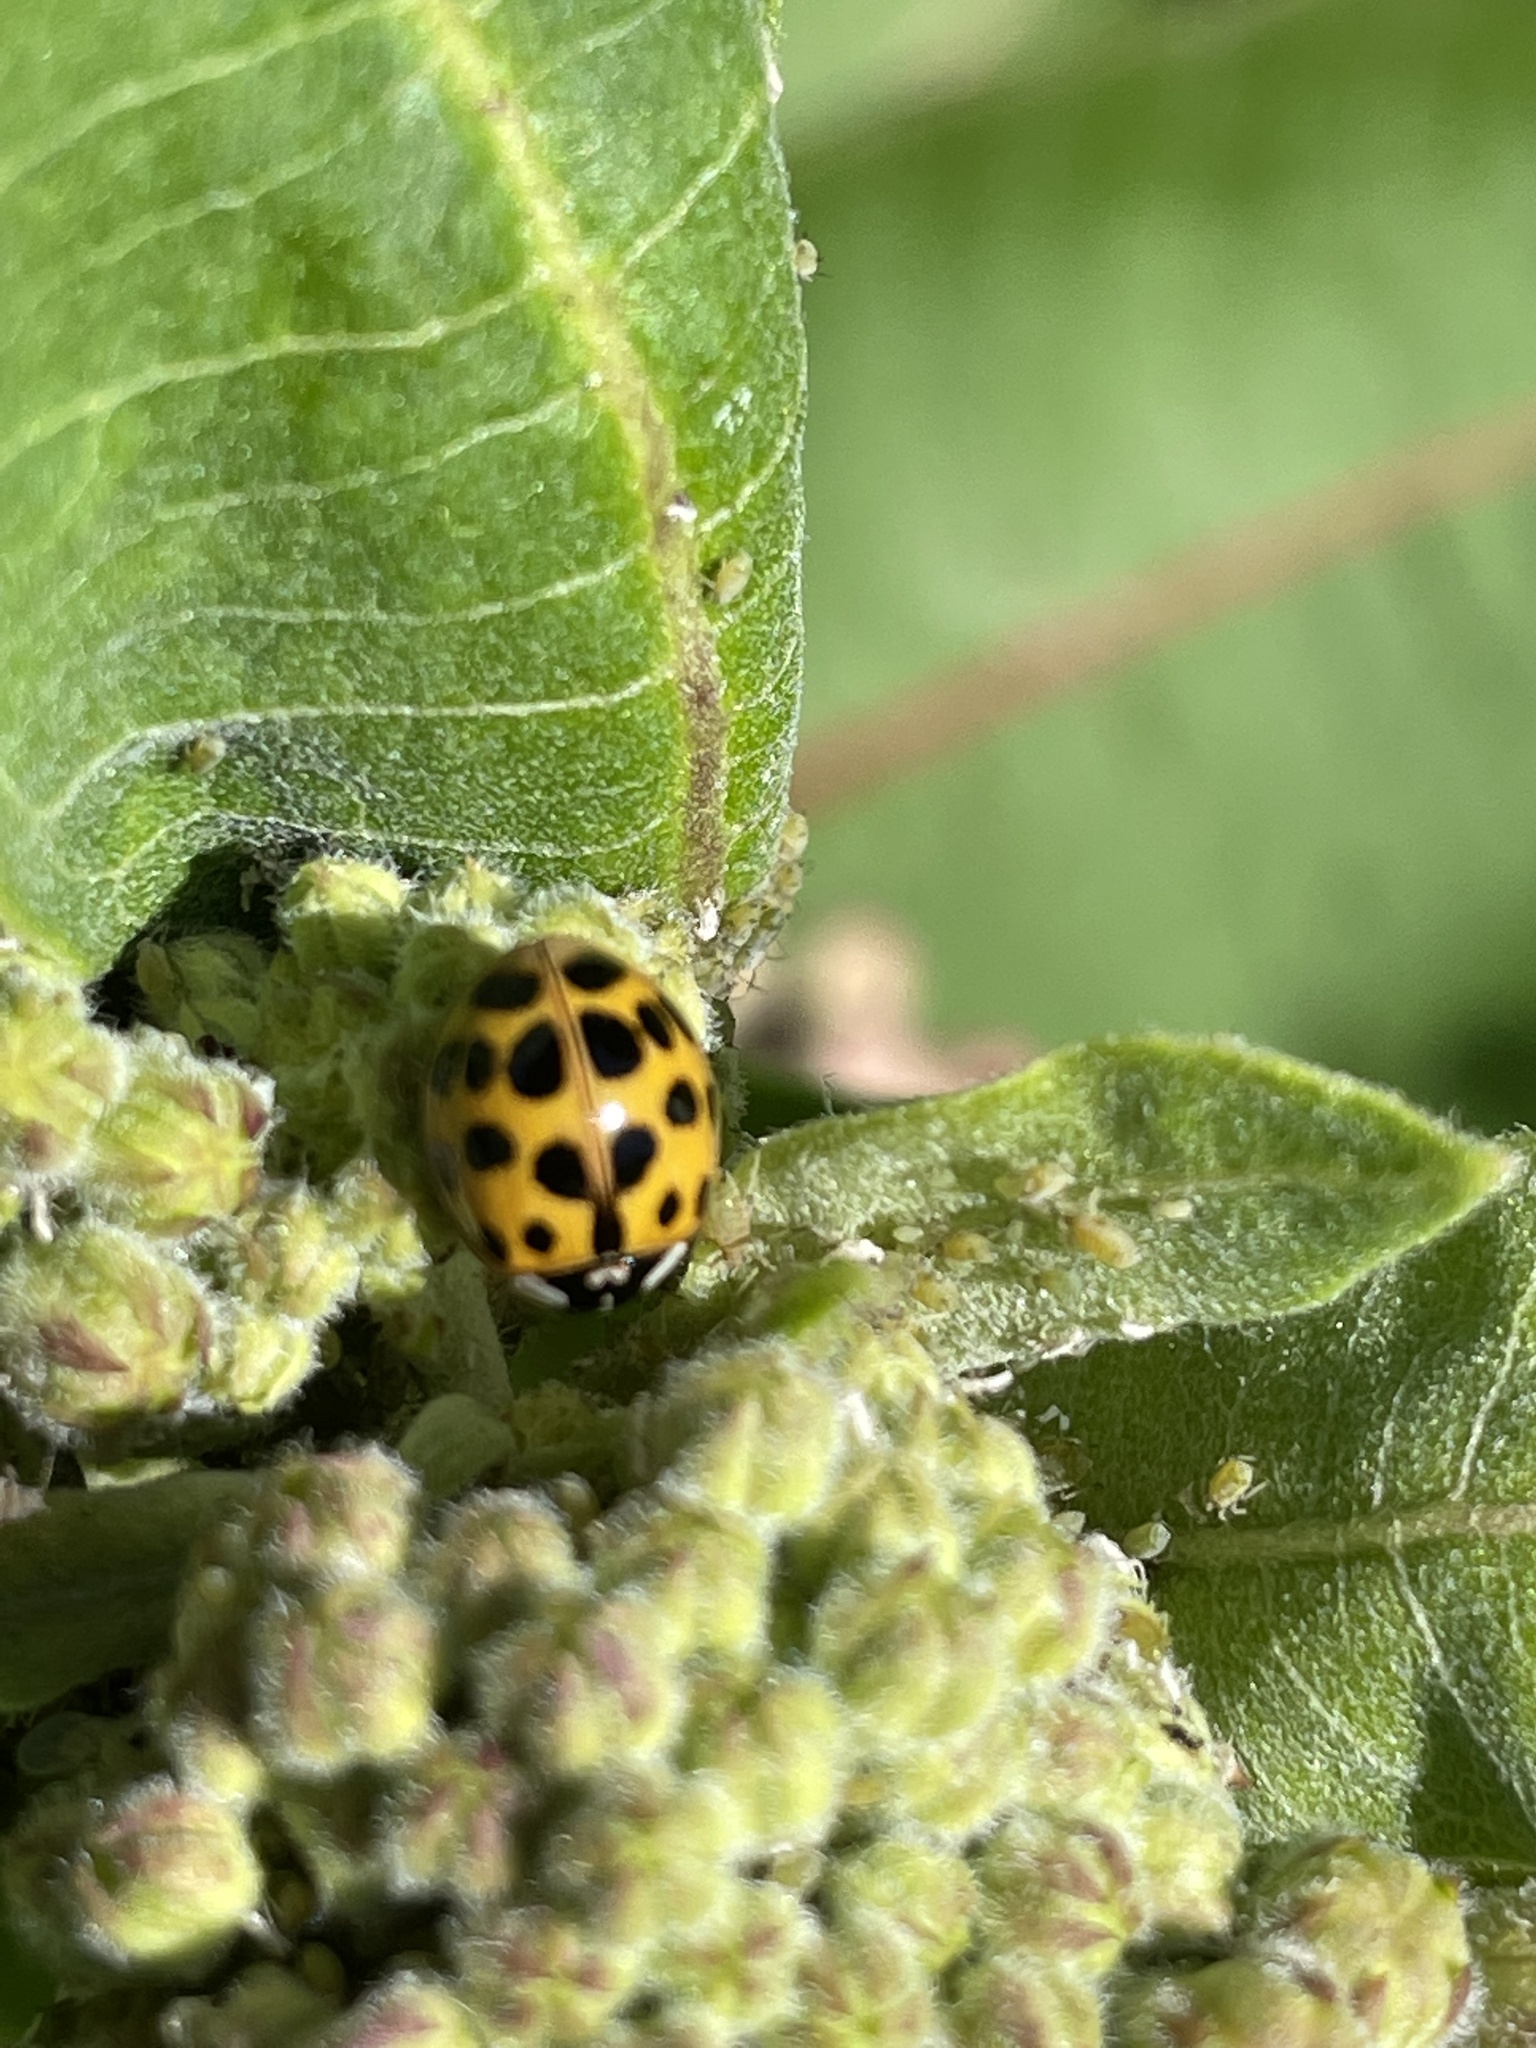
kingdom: Animalia
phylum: Arthropoda
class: Insecta
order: Coleoptera
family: Coccinellidae
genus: Harmonia
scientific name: Harmonia axyridis
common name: Harlequin ladybird
